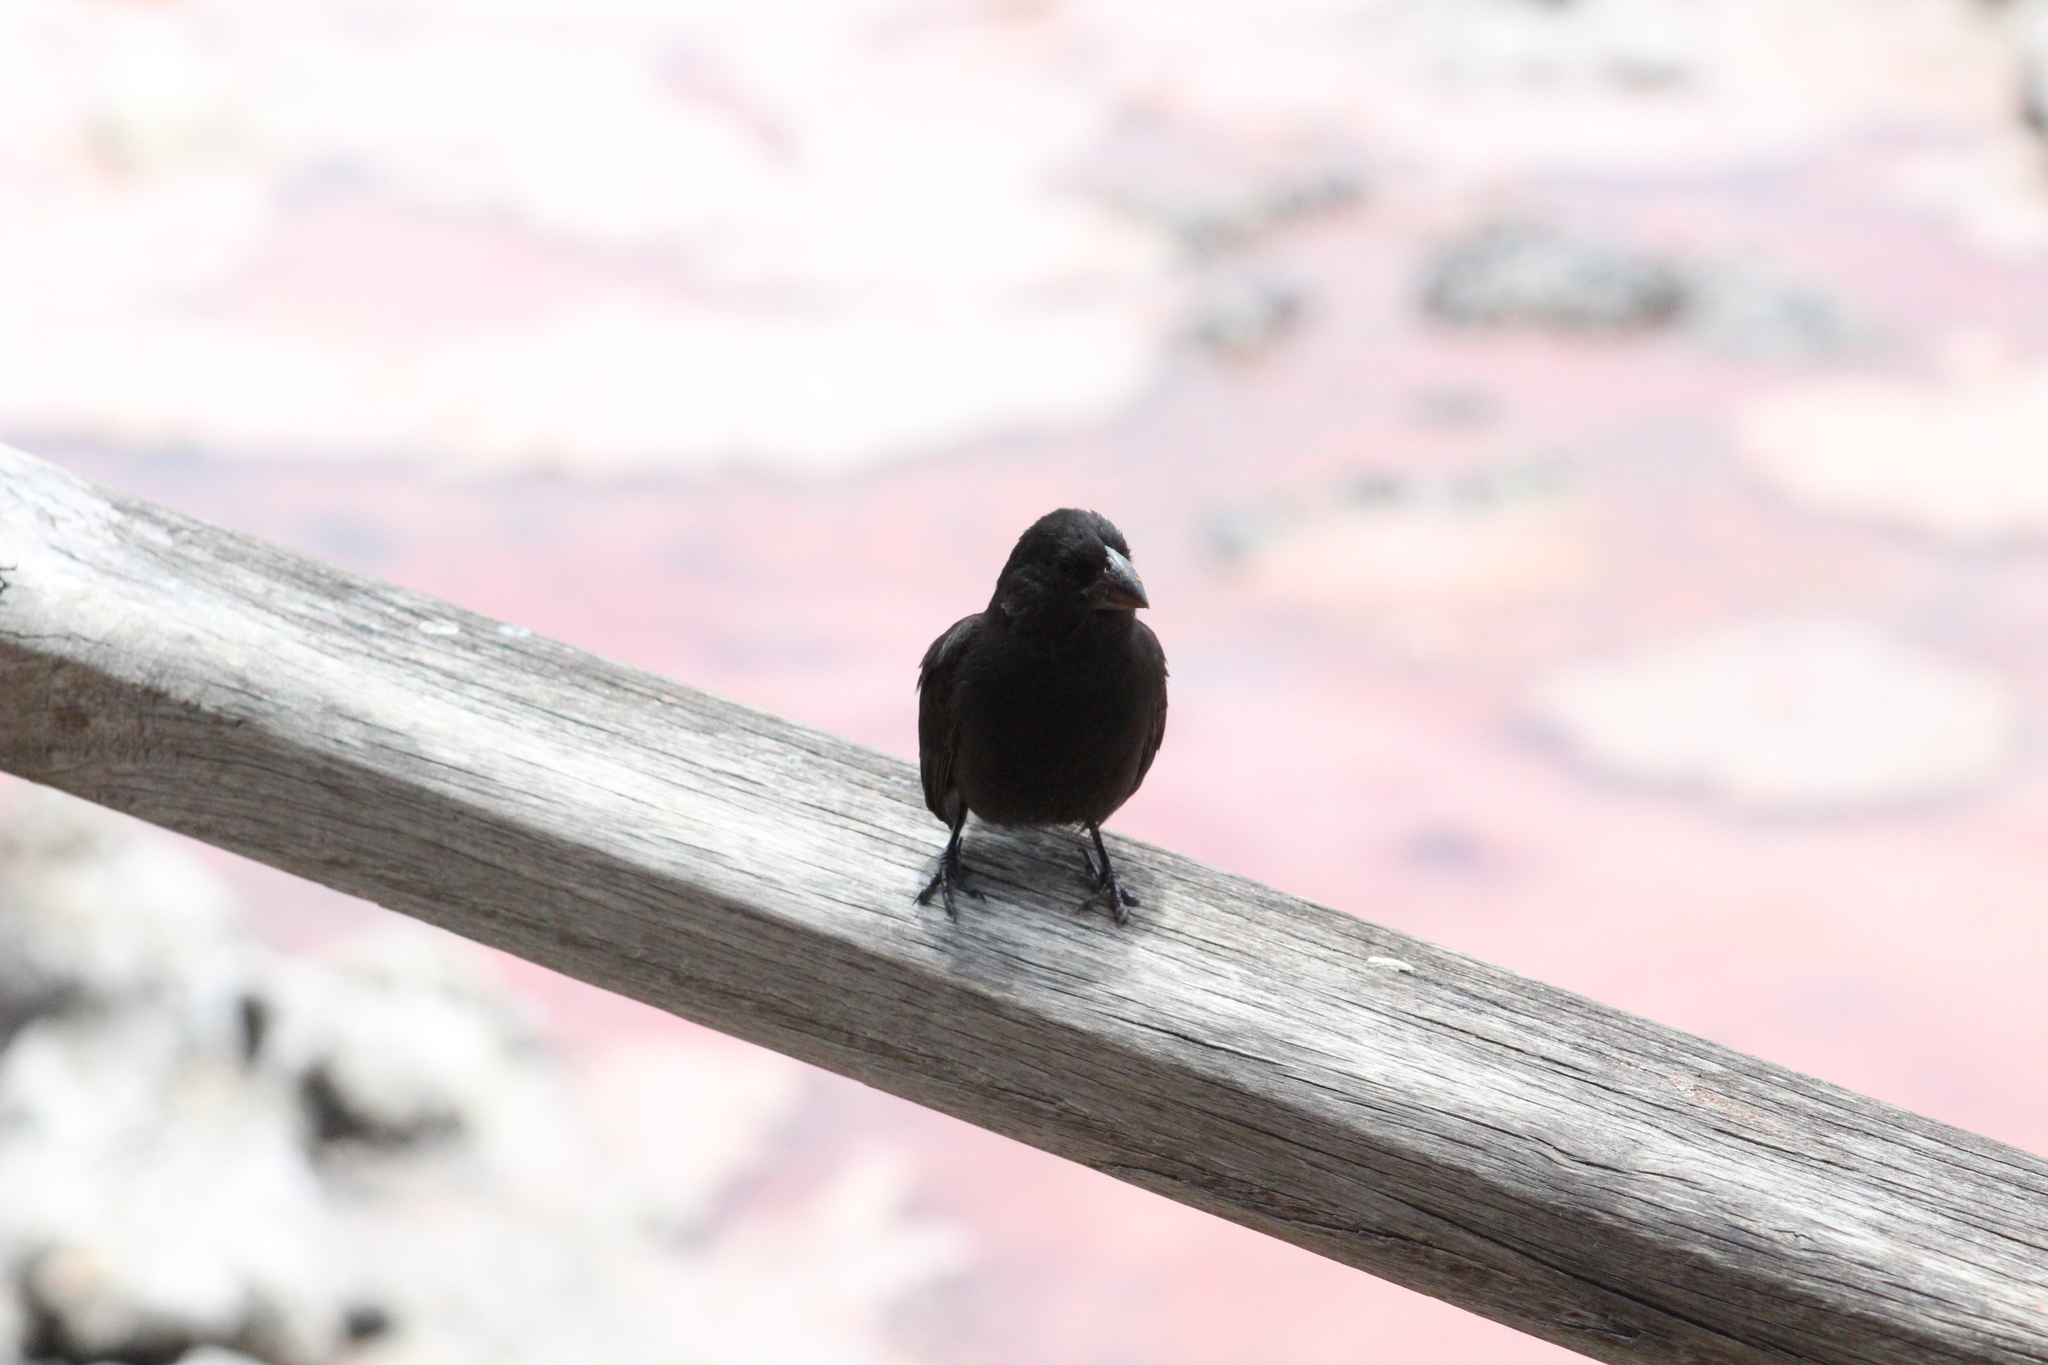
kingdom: Animalia
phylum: Chordata
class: Aves
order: Passeriformes
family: Thraupidae
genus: Geospiza
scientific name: Geospiza fortis
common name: Medium ground finch
